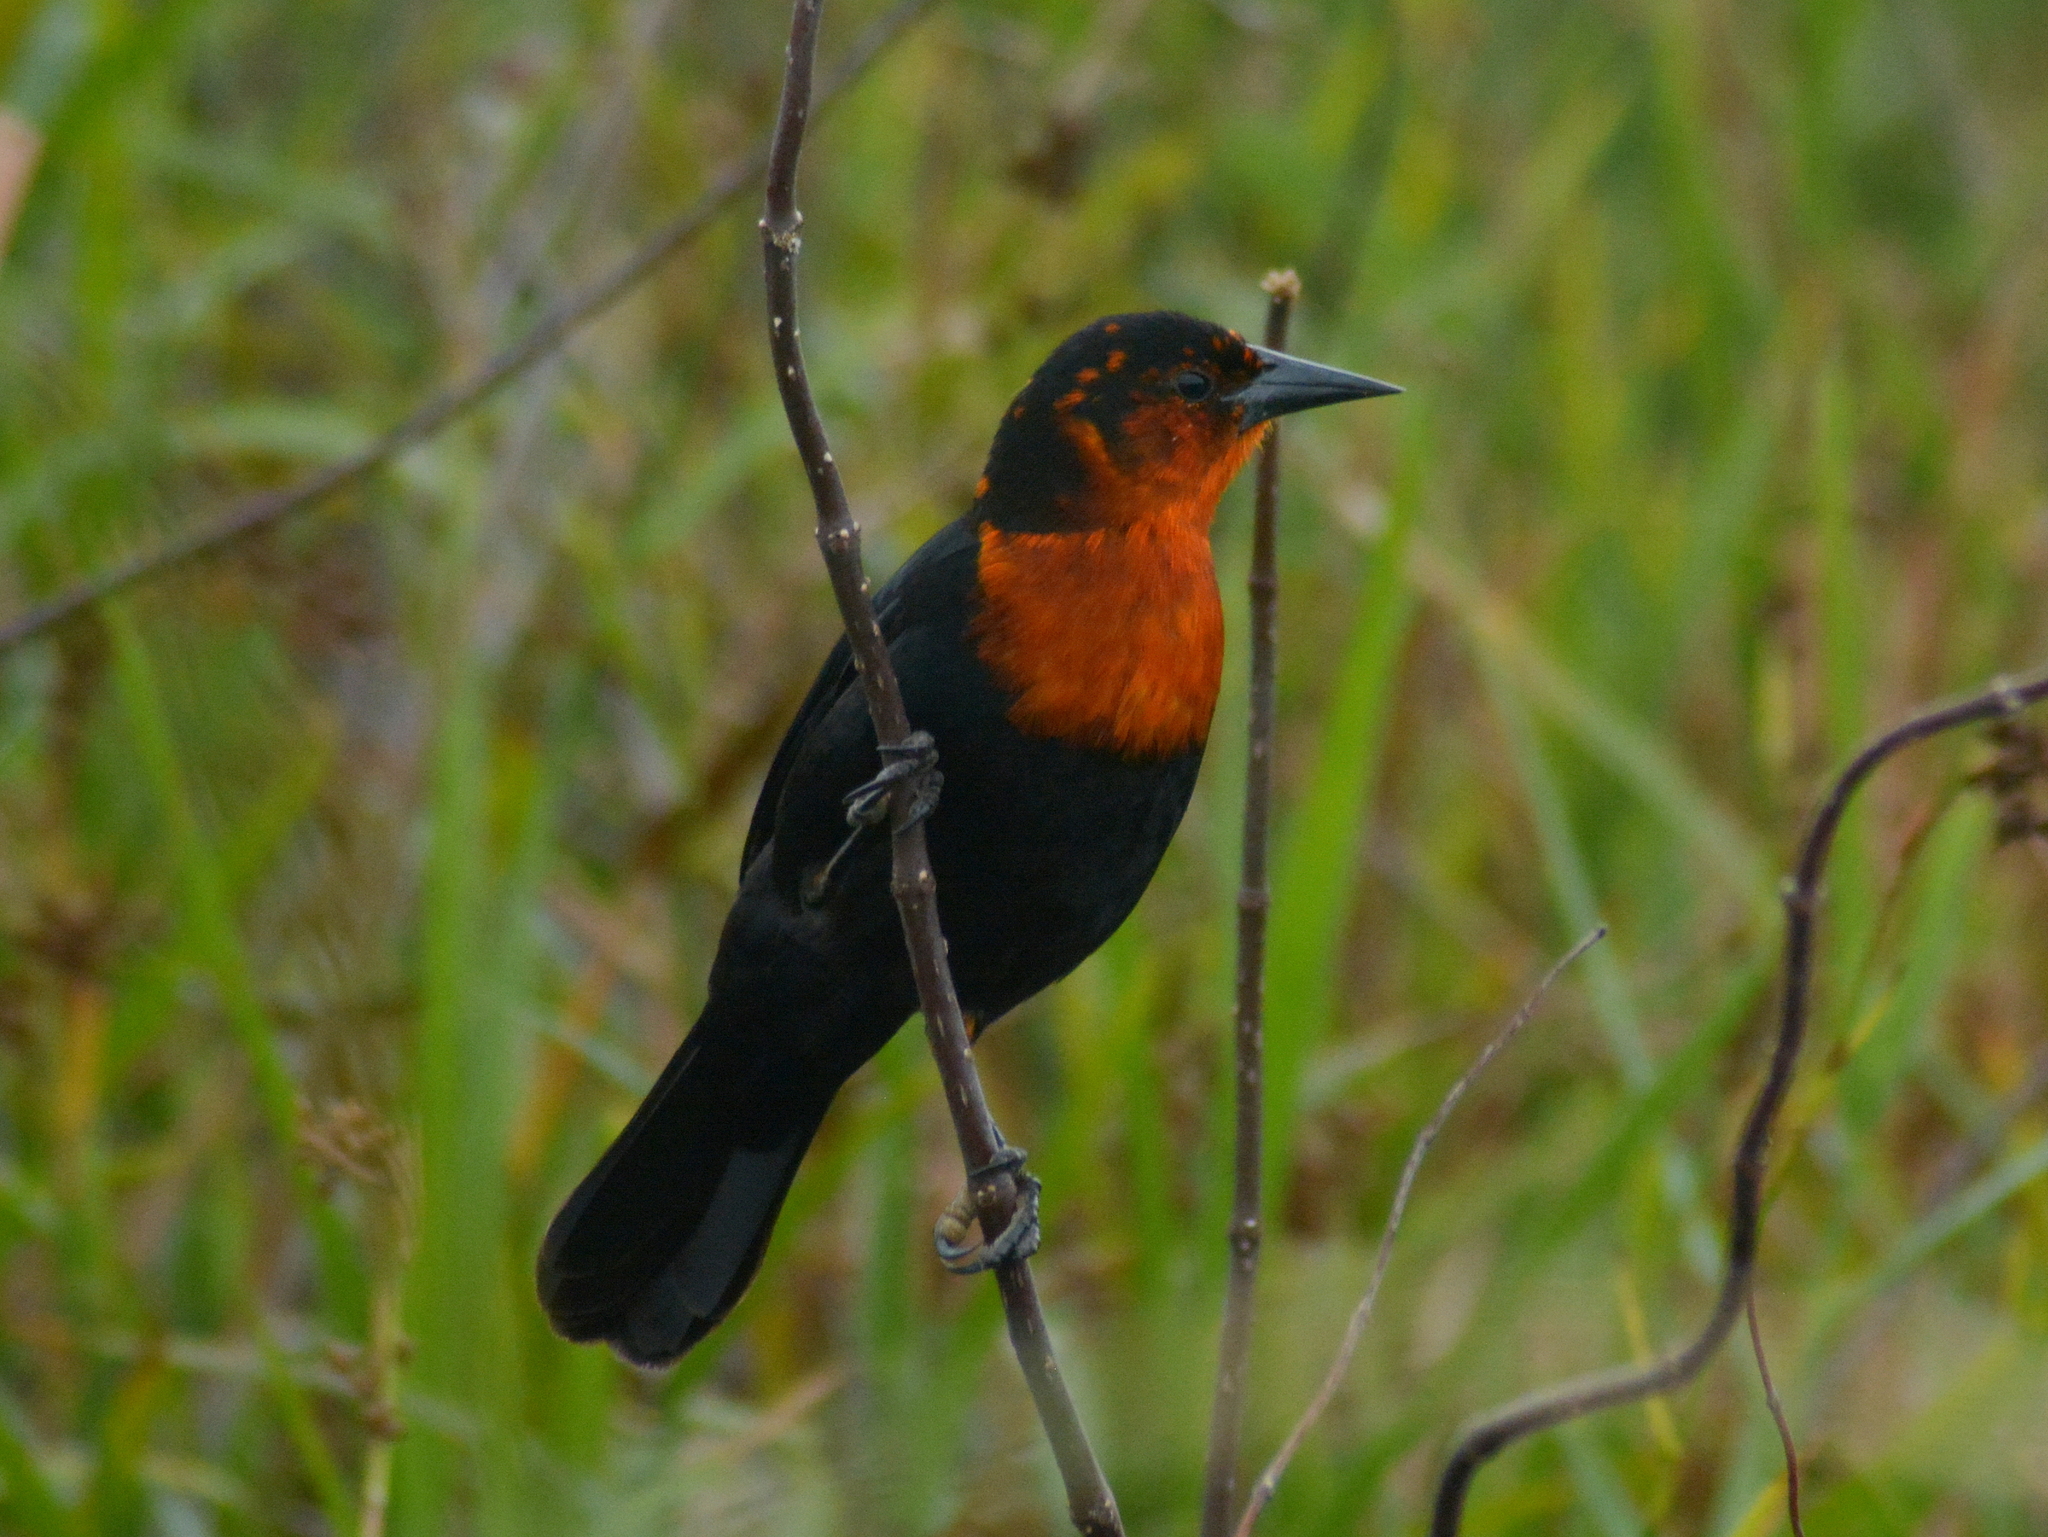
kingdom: Animalia
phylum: Chordata
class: Aves
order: Passeriformes
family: Icteridae
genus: Amblyramphus
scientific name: Amblyramphus holosericeus
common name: Scarlet-headed blackbird
